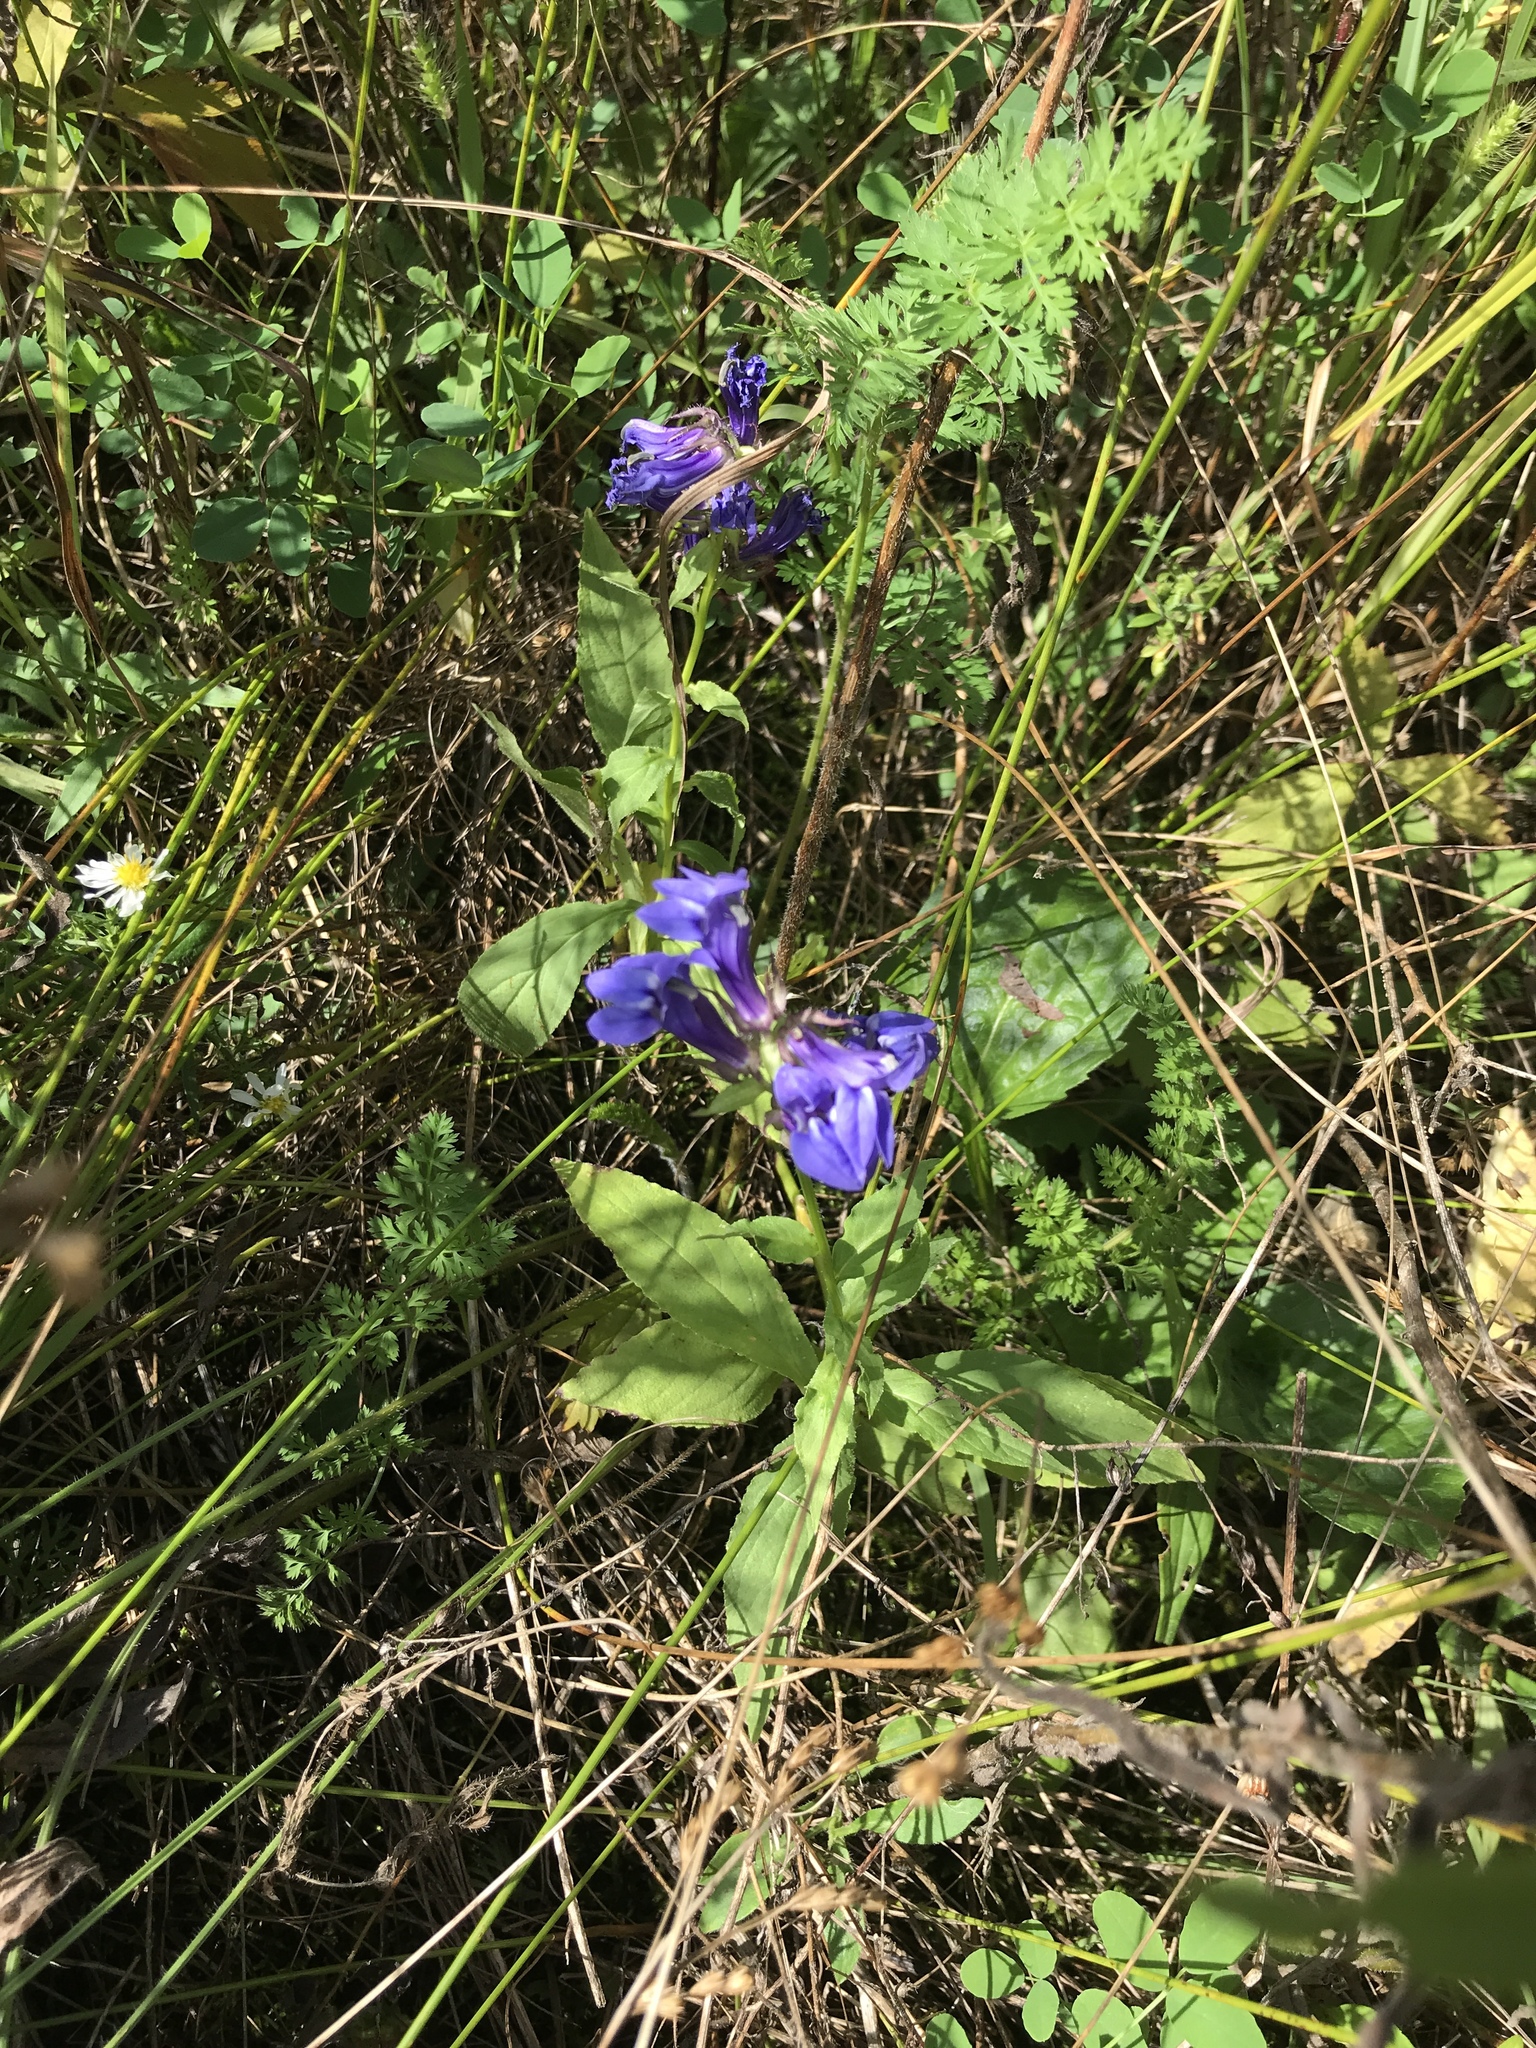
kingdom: Plantae
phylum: Tracheophyta
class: Magnoliopsida
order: Asterales
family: Campanulaceae
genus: Lobelia
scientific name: Lobelia siphilitica
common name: Great lobelia
